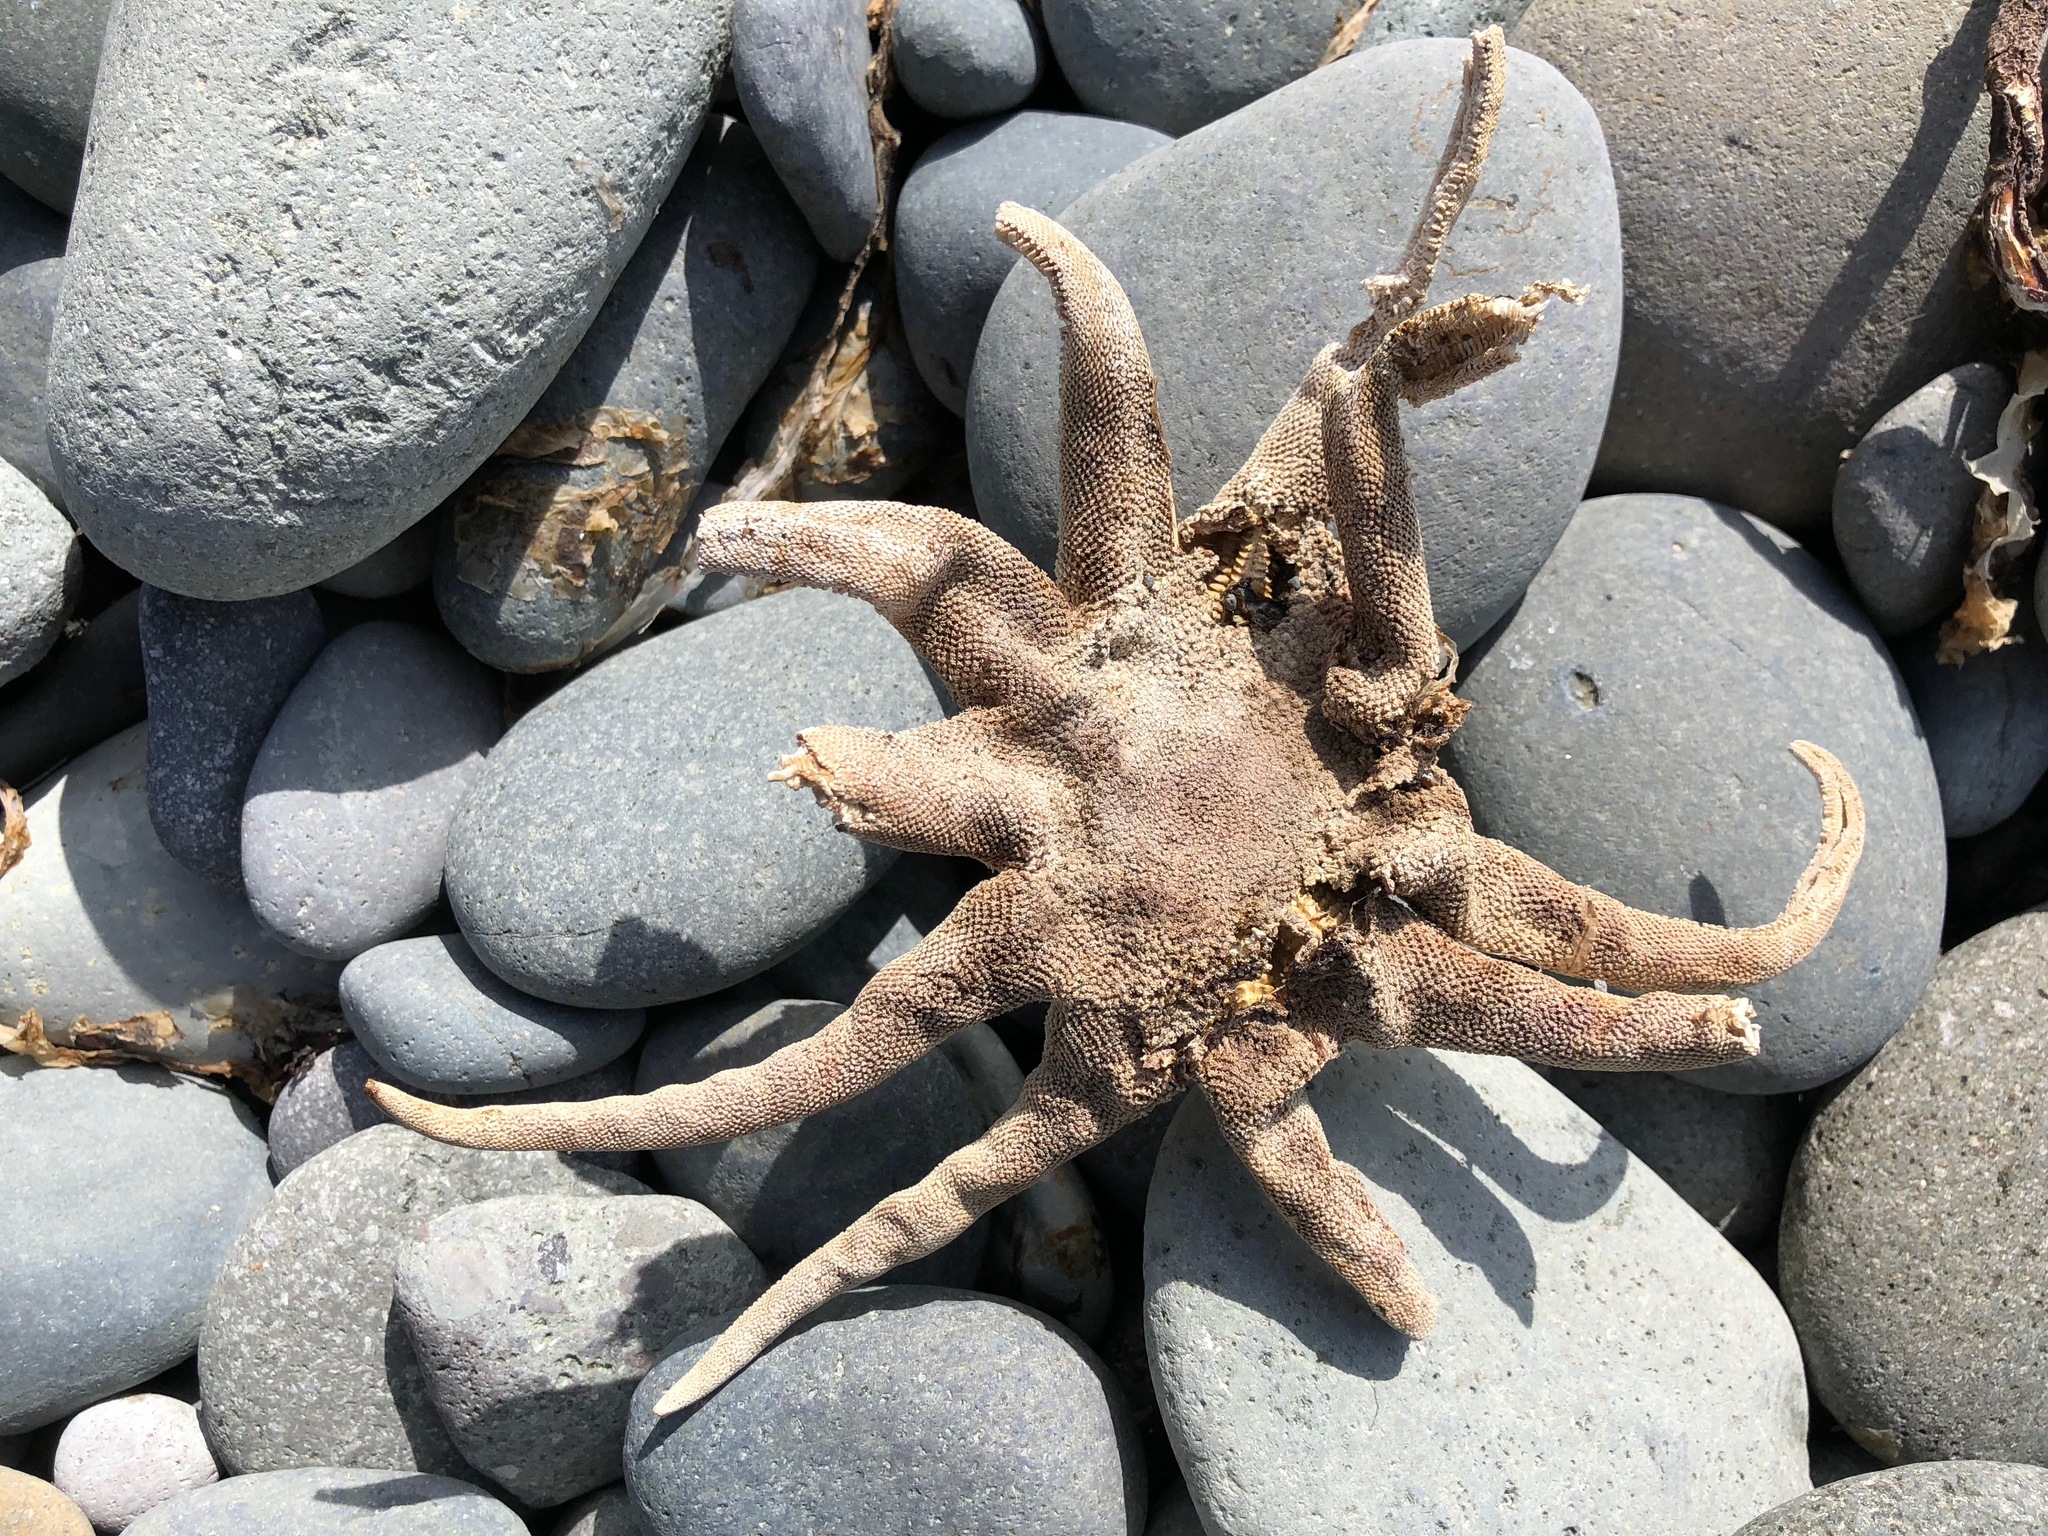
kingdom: Animalia
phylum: Echinodermata
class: Asteroidea
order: Valvatida
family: Solasteridae
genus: Solaster
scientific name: Solaster dawsoni
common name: Morning sun star
